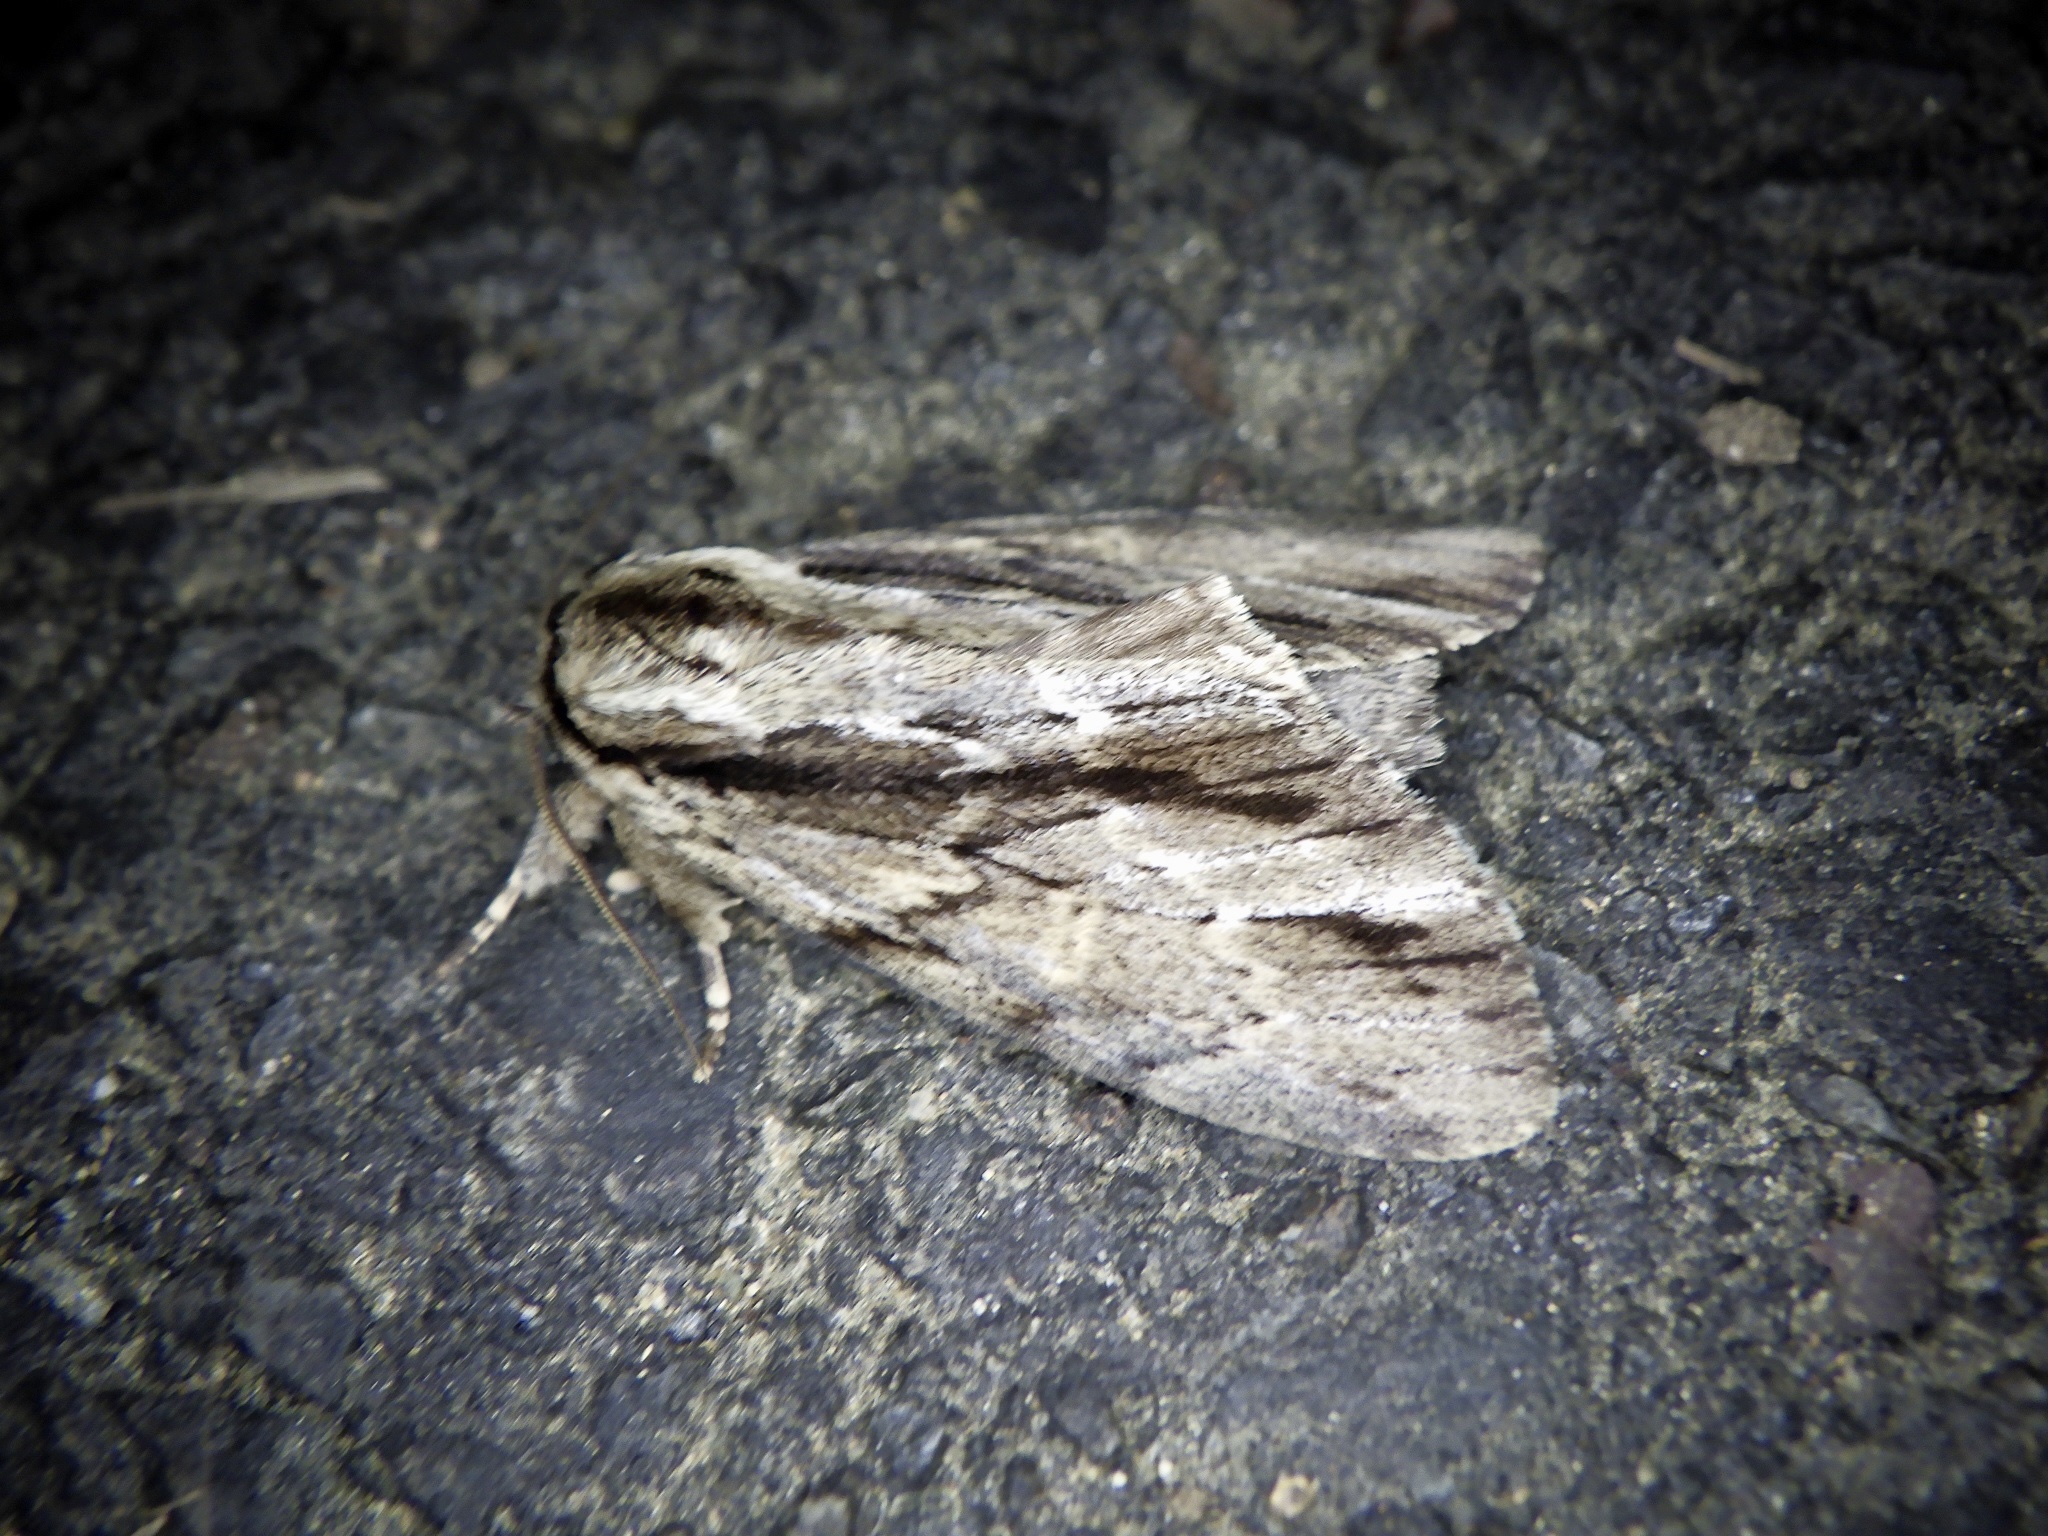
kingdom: Animalia
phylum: Arthropoda
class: Insecta
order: Lepidoptera
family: Notodontidae
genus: Shaka
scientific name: Shaka atrovittatus
